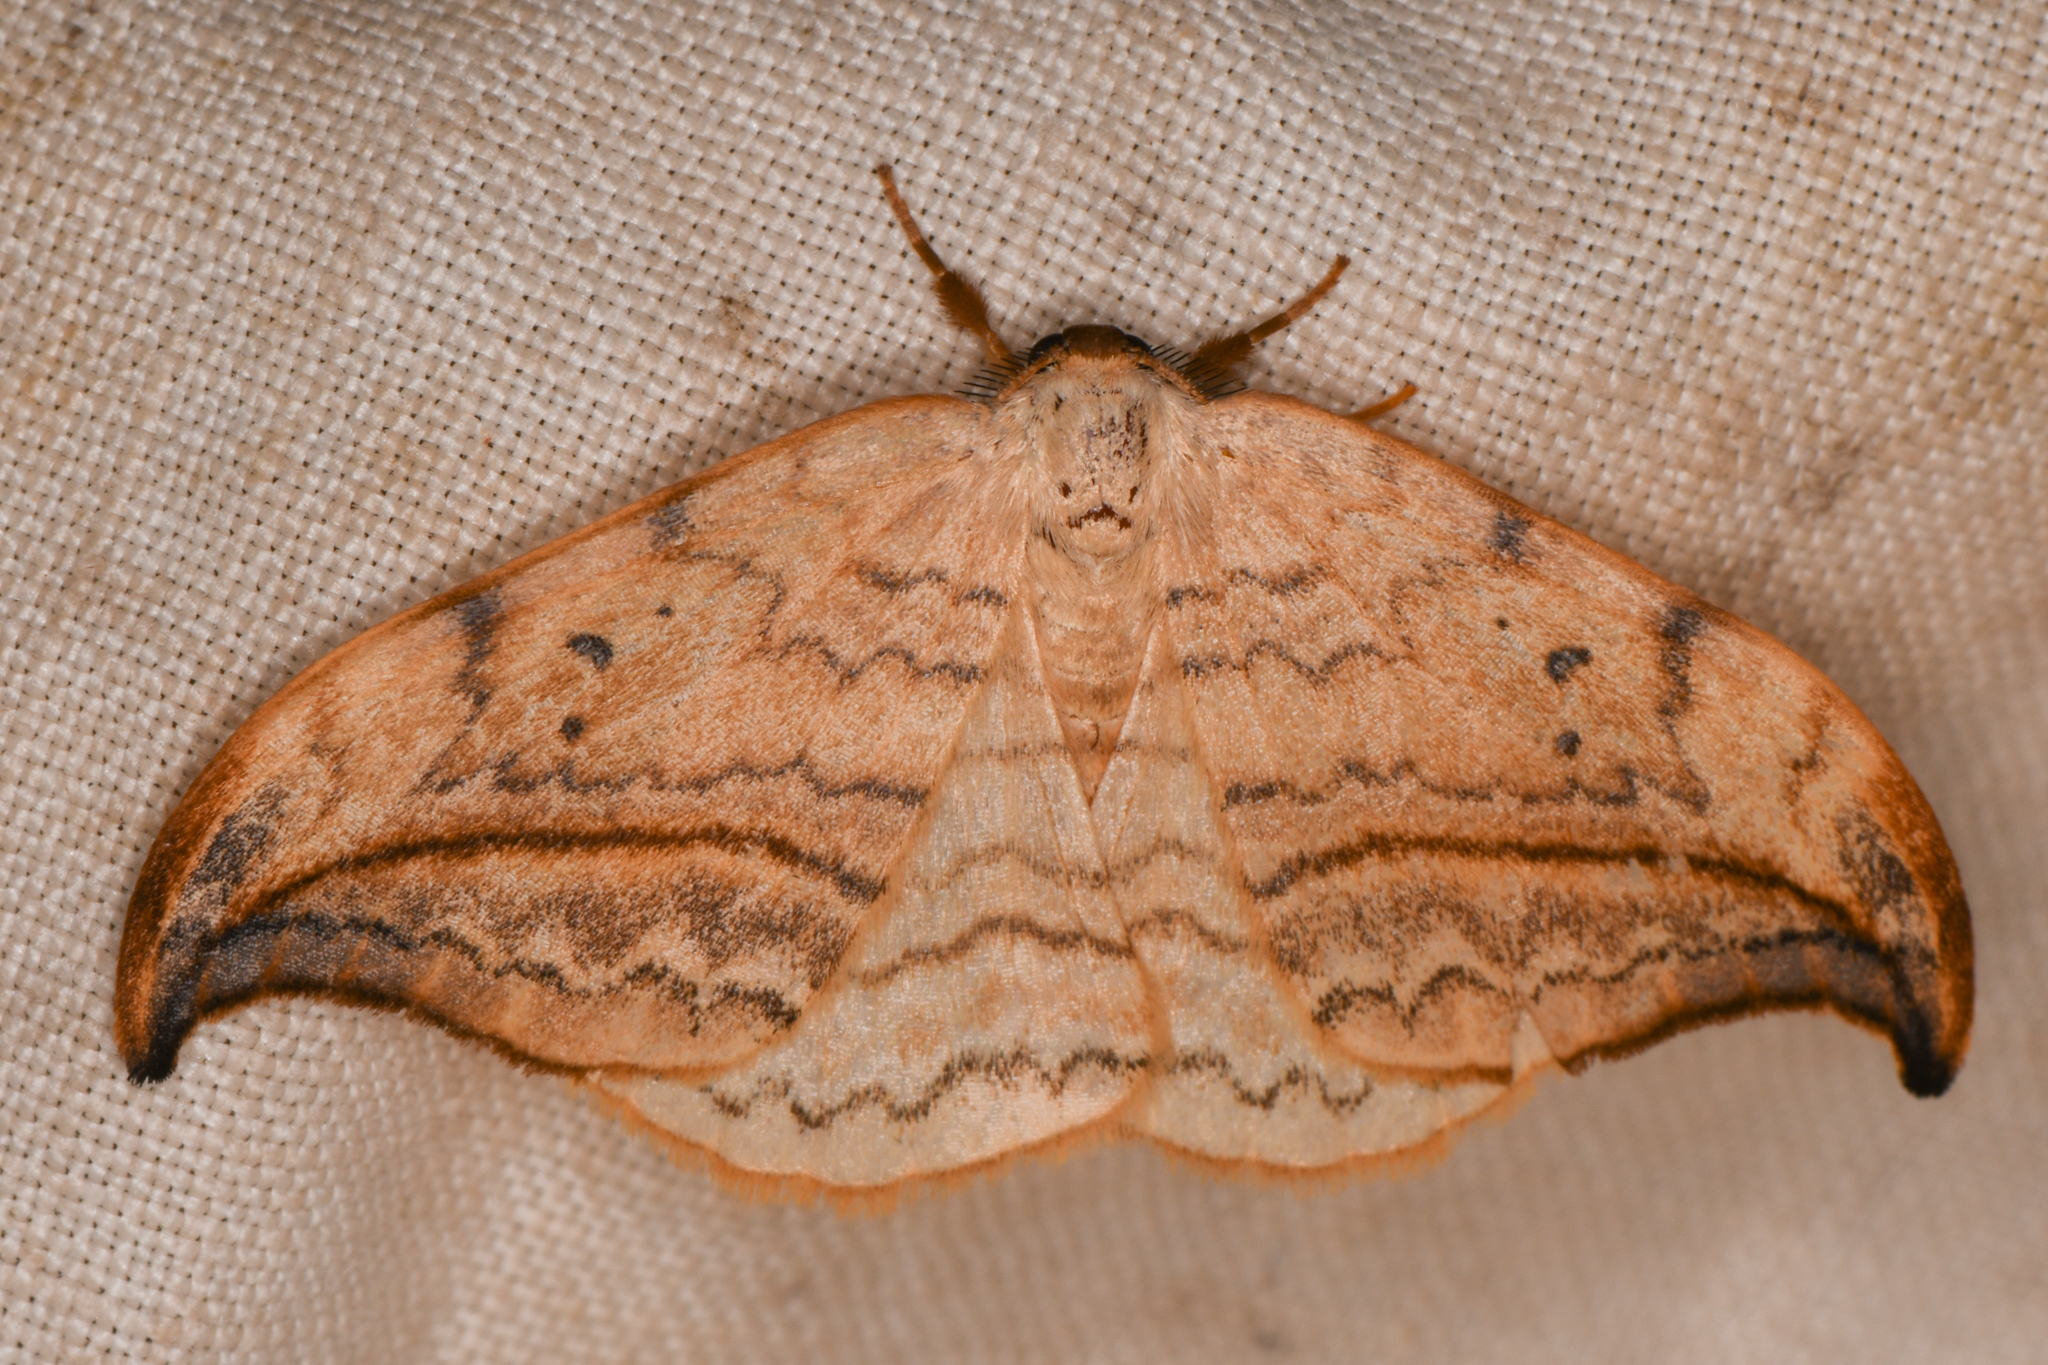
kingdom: Animalia
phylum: Arthropoda
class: Insecta
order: Lepidoptera
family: Drepanidae
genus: Drepana
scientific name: Drepana arcuata
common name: Arched hooktip moth
